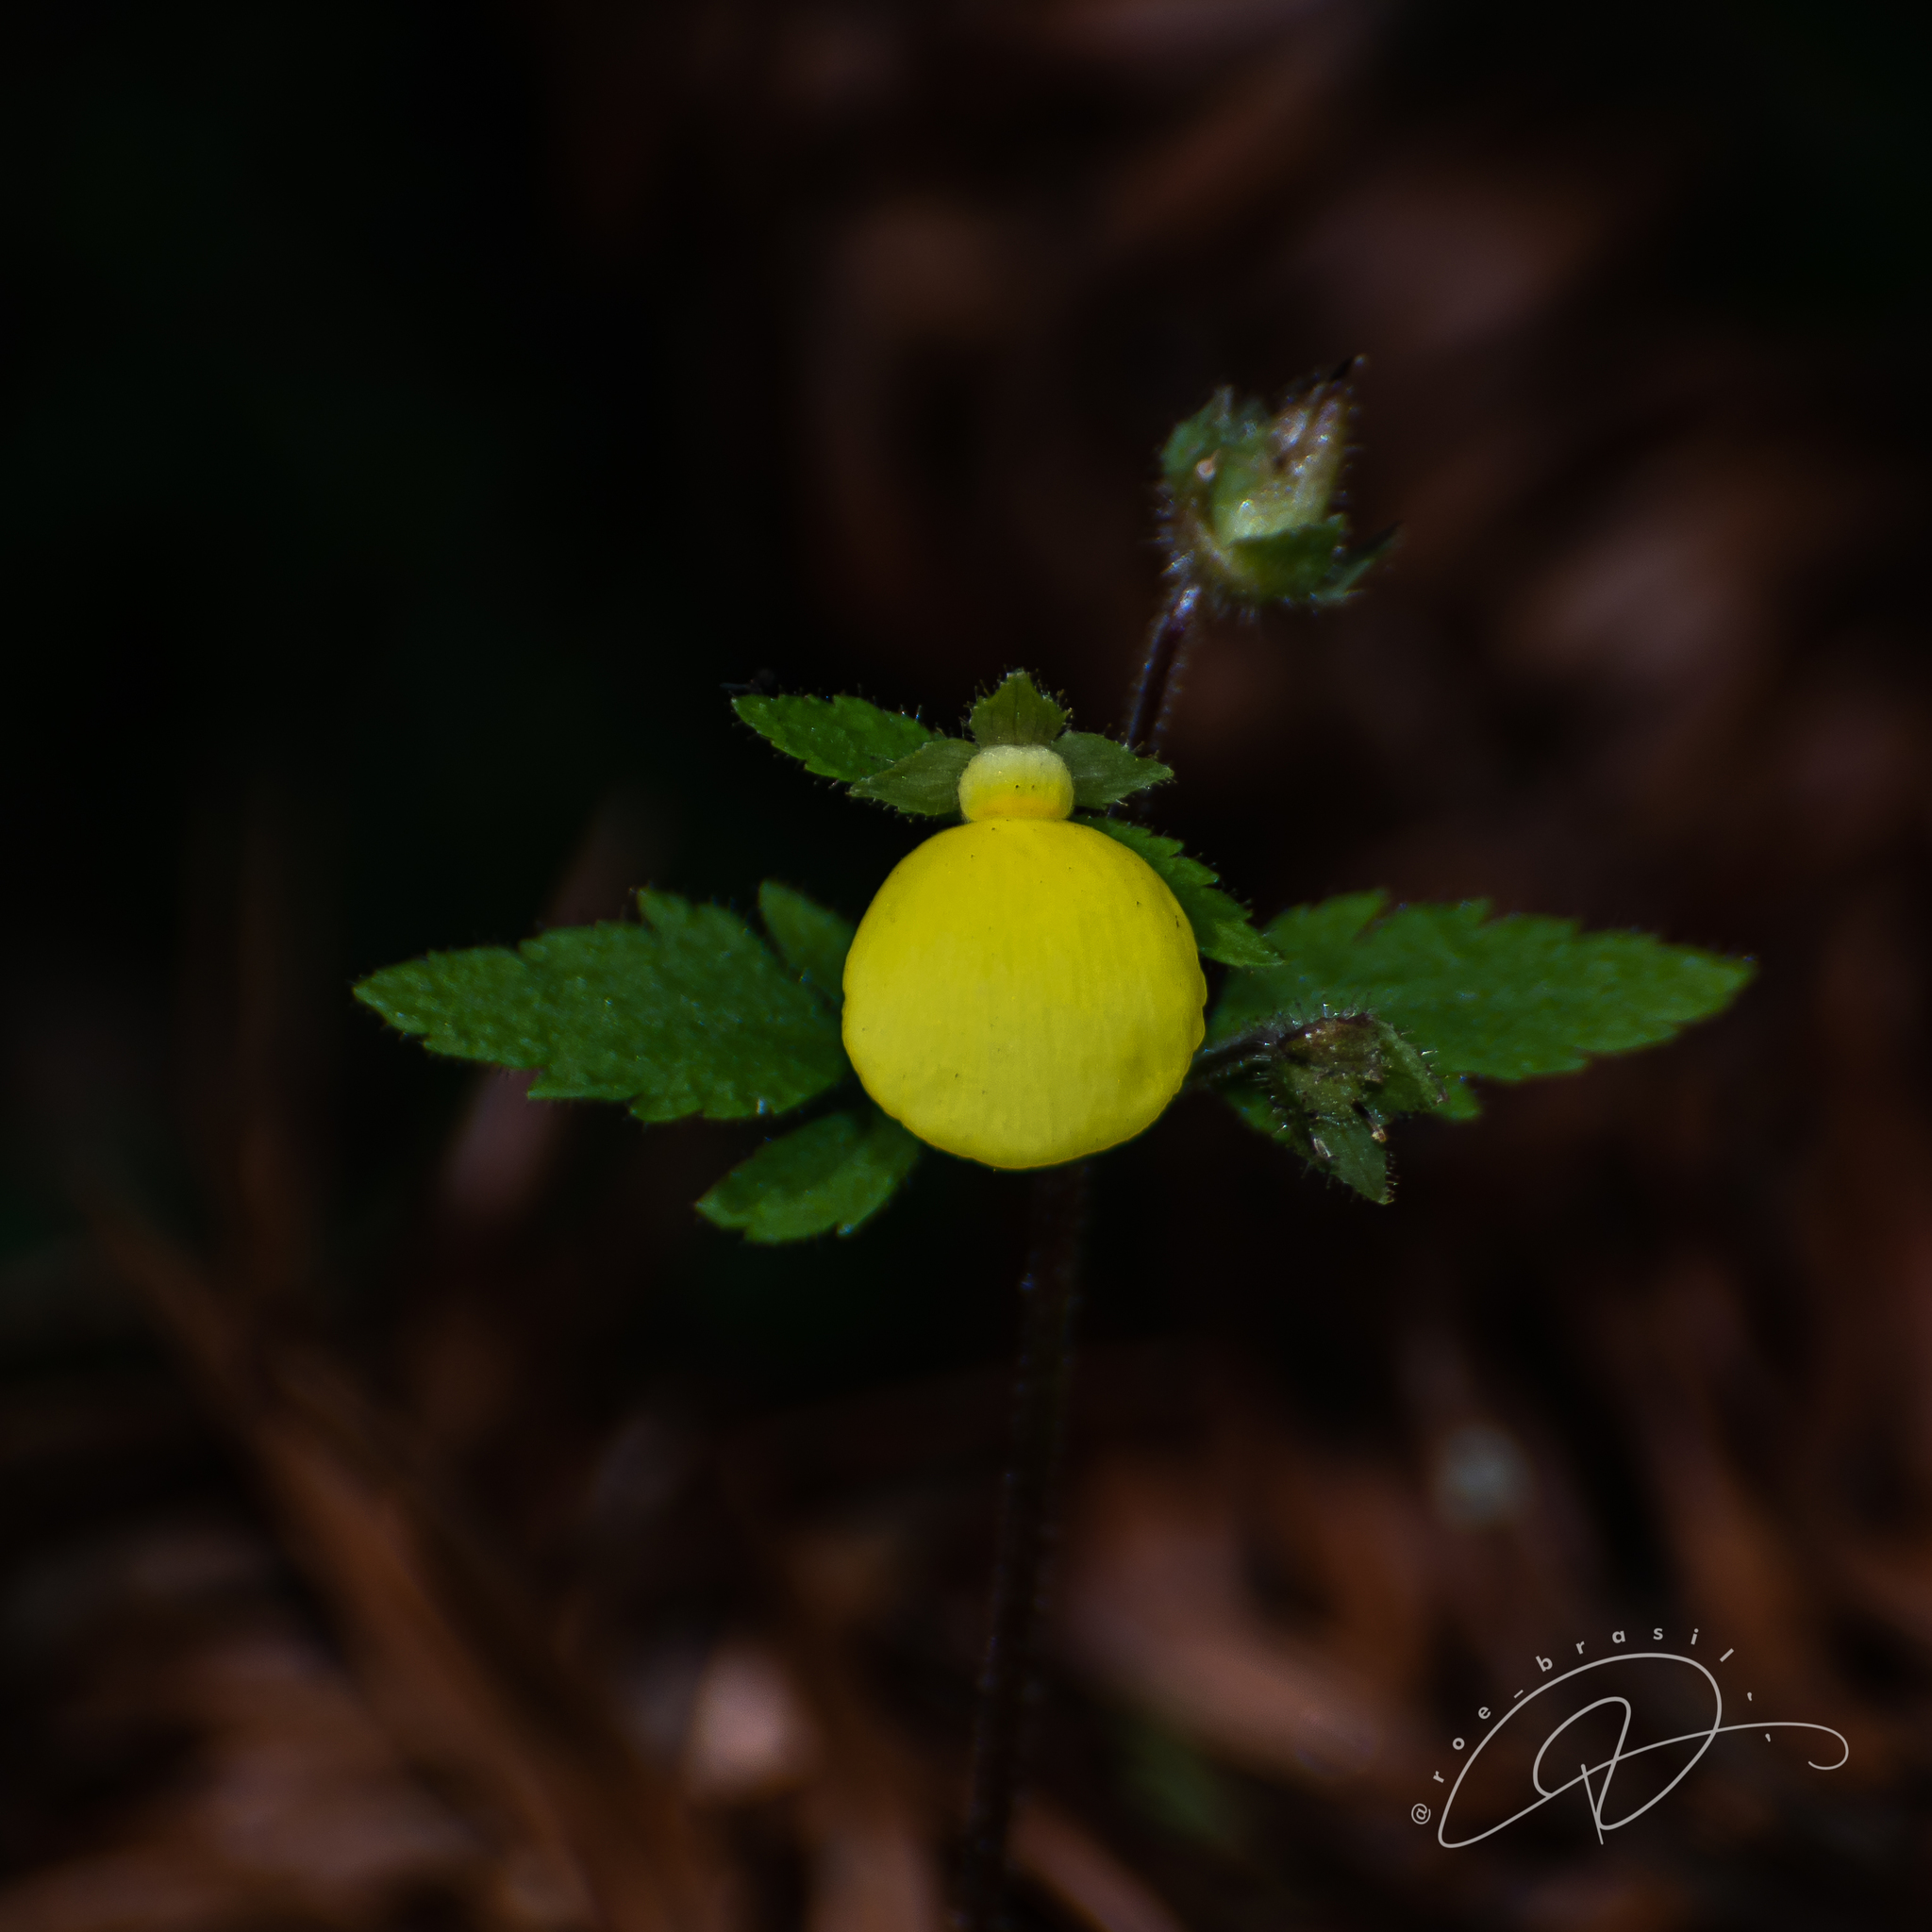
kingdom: Plantae
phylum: Tracheophyta
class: Magnoliopsida
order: Lamiales
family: Calceolariaceae
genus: Calceolaria
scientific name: Calceolaria tripartita
